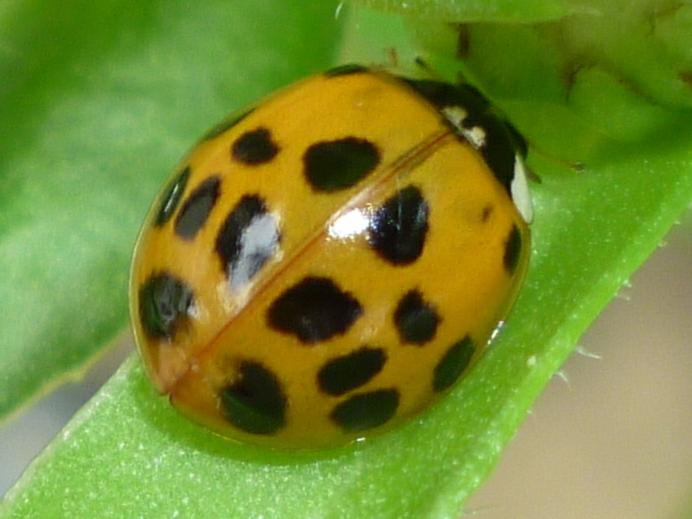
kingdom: Animalia
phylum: Arthropoda
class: Insecta
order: Coleoptera
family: Coccinellidae
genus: Harmonia
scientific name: Harmonia axyridis
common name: Harlequin ladybird
